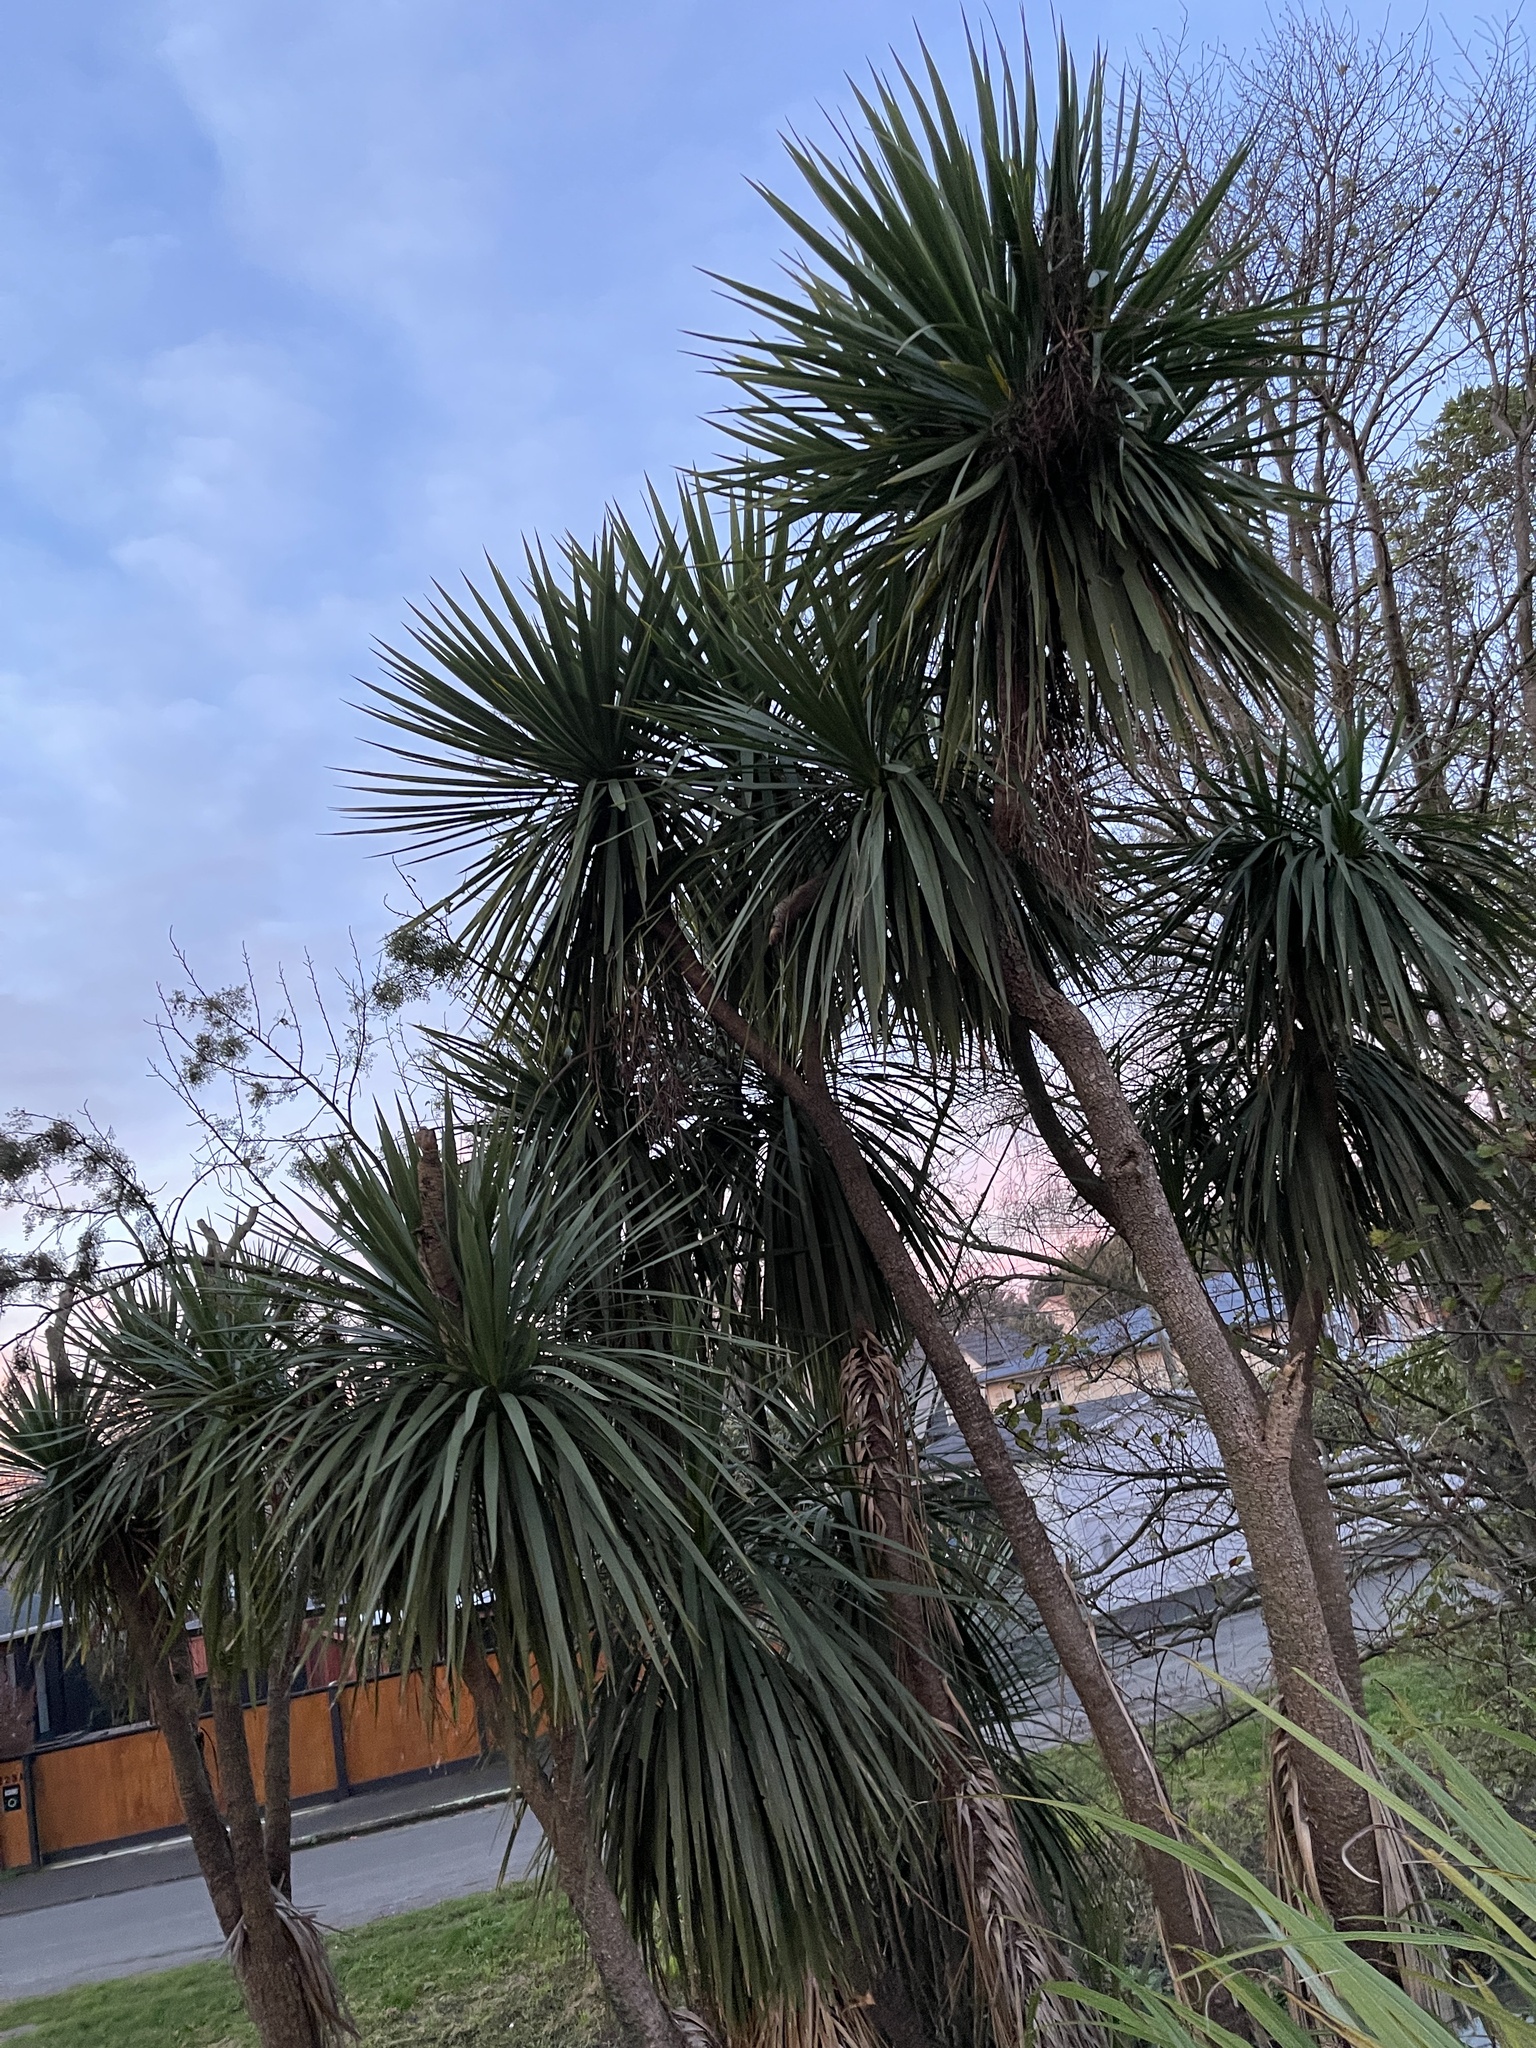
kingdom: Plantae
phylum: Tracheophyta
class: Liliopsida
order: Asparagales
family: Asparagaceae
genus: Cordyline
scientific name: Cordyline australis
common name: Cabbage-palm
